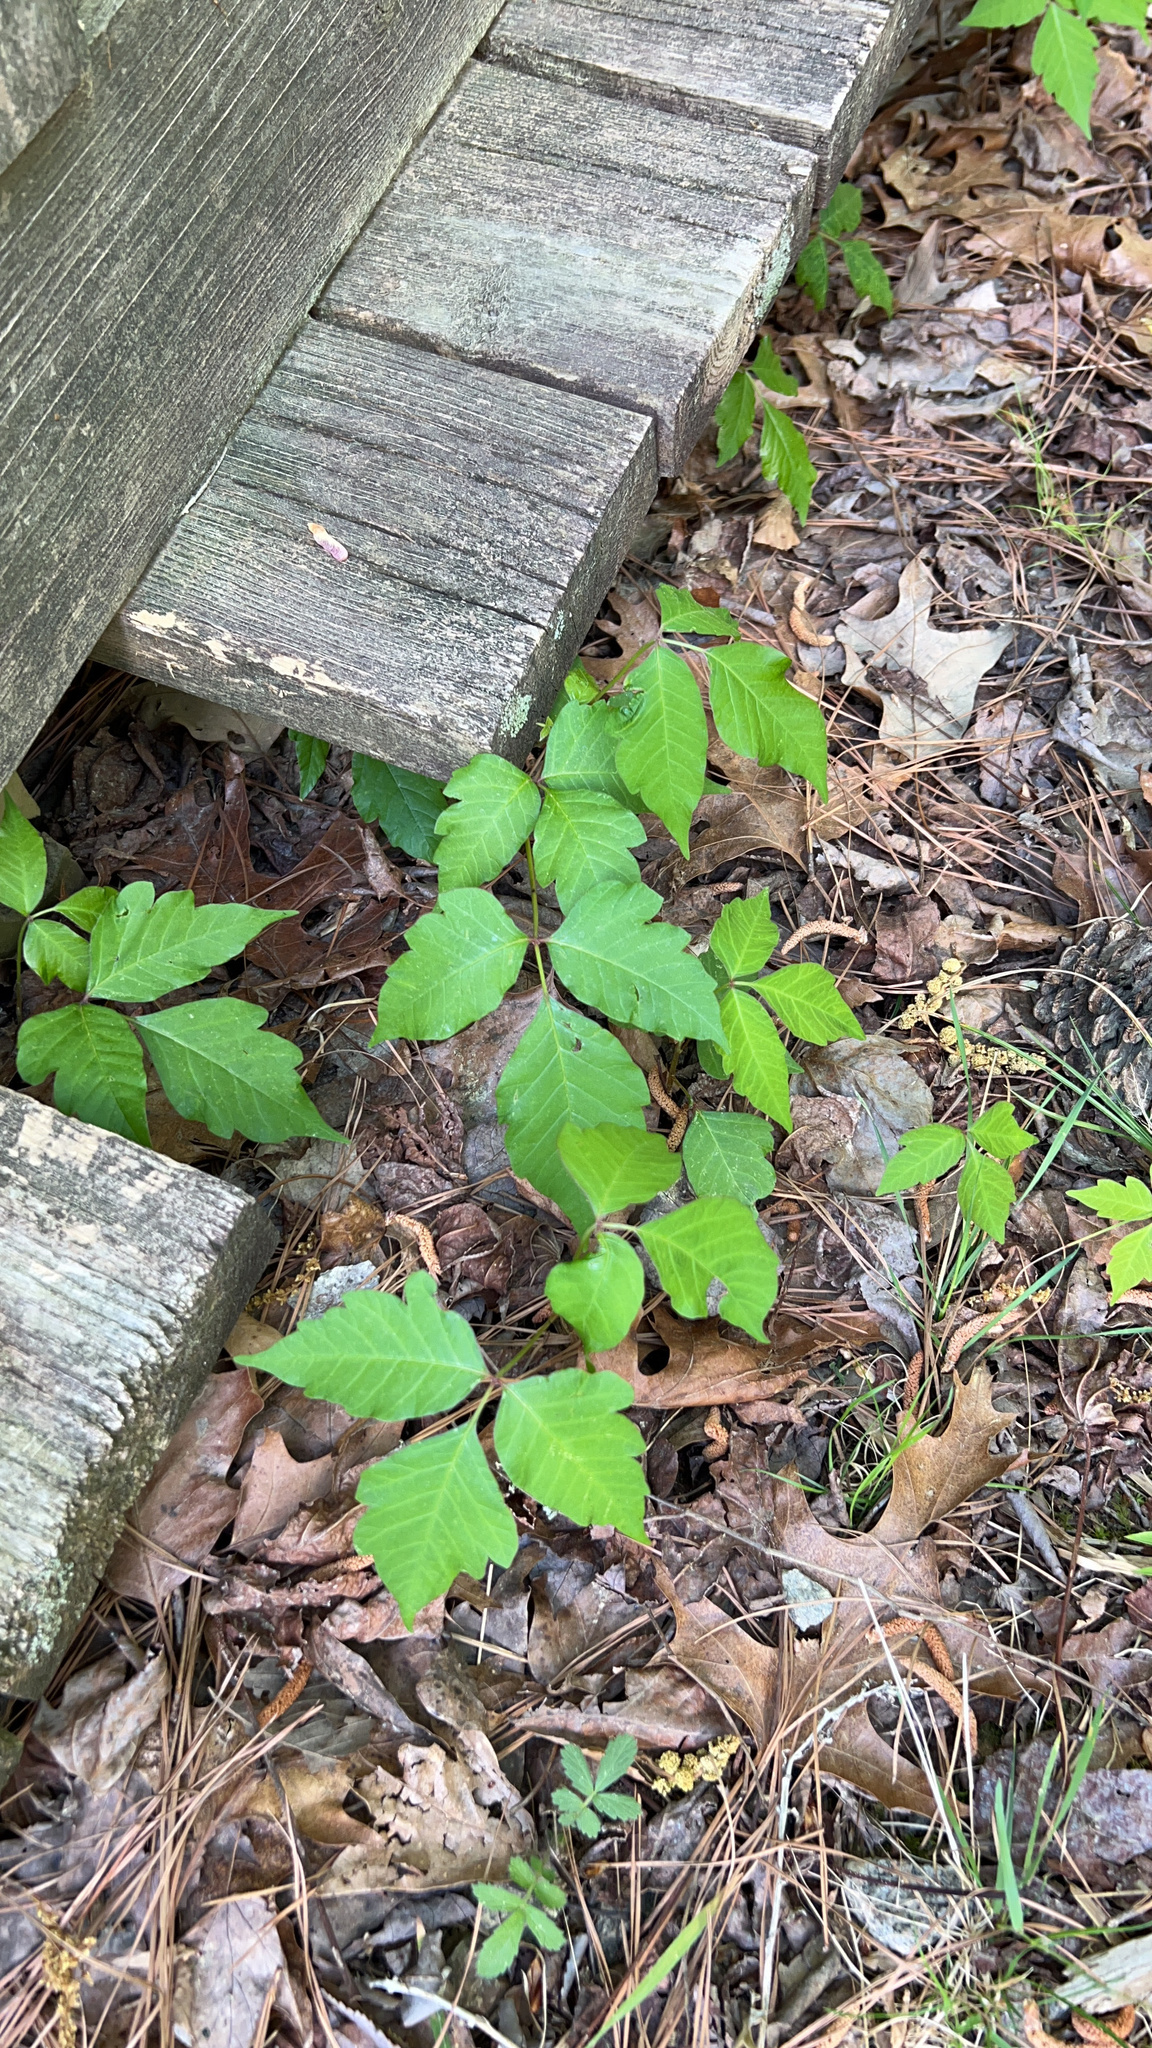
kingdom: Plantae
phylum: Tracheophyta
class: Magnoliopsida
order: Sapindales
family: Anacardiaceae
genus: Toxicodendron
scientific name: Toxicodendron radicans
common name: Poison ivy
